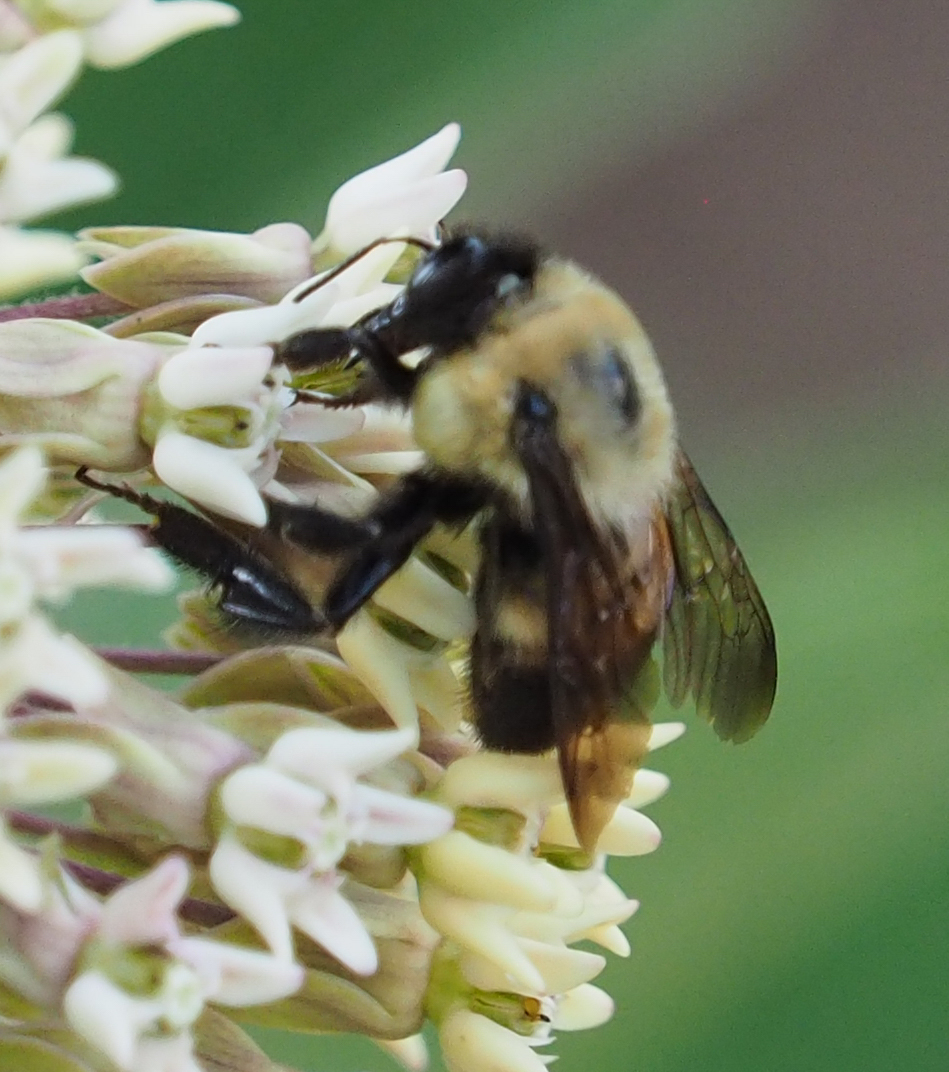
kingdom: Animalia
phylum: Arthropoda
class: Insecta
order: Hymenoptera
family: Apidae
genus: Bombus
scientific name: Bombus griseocollis
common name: Brown-belted bumble bee
